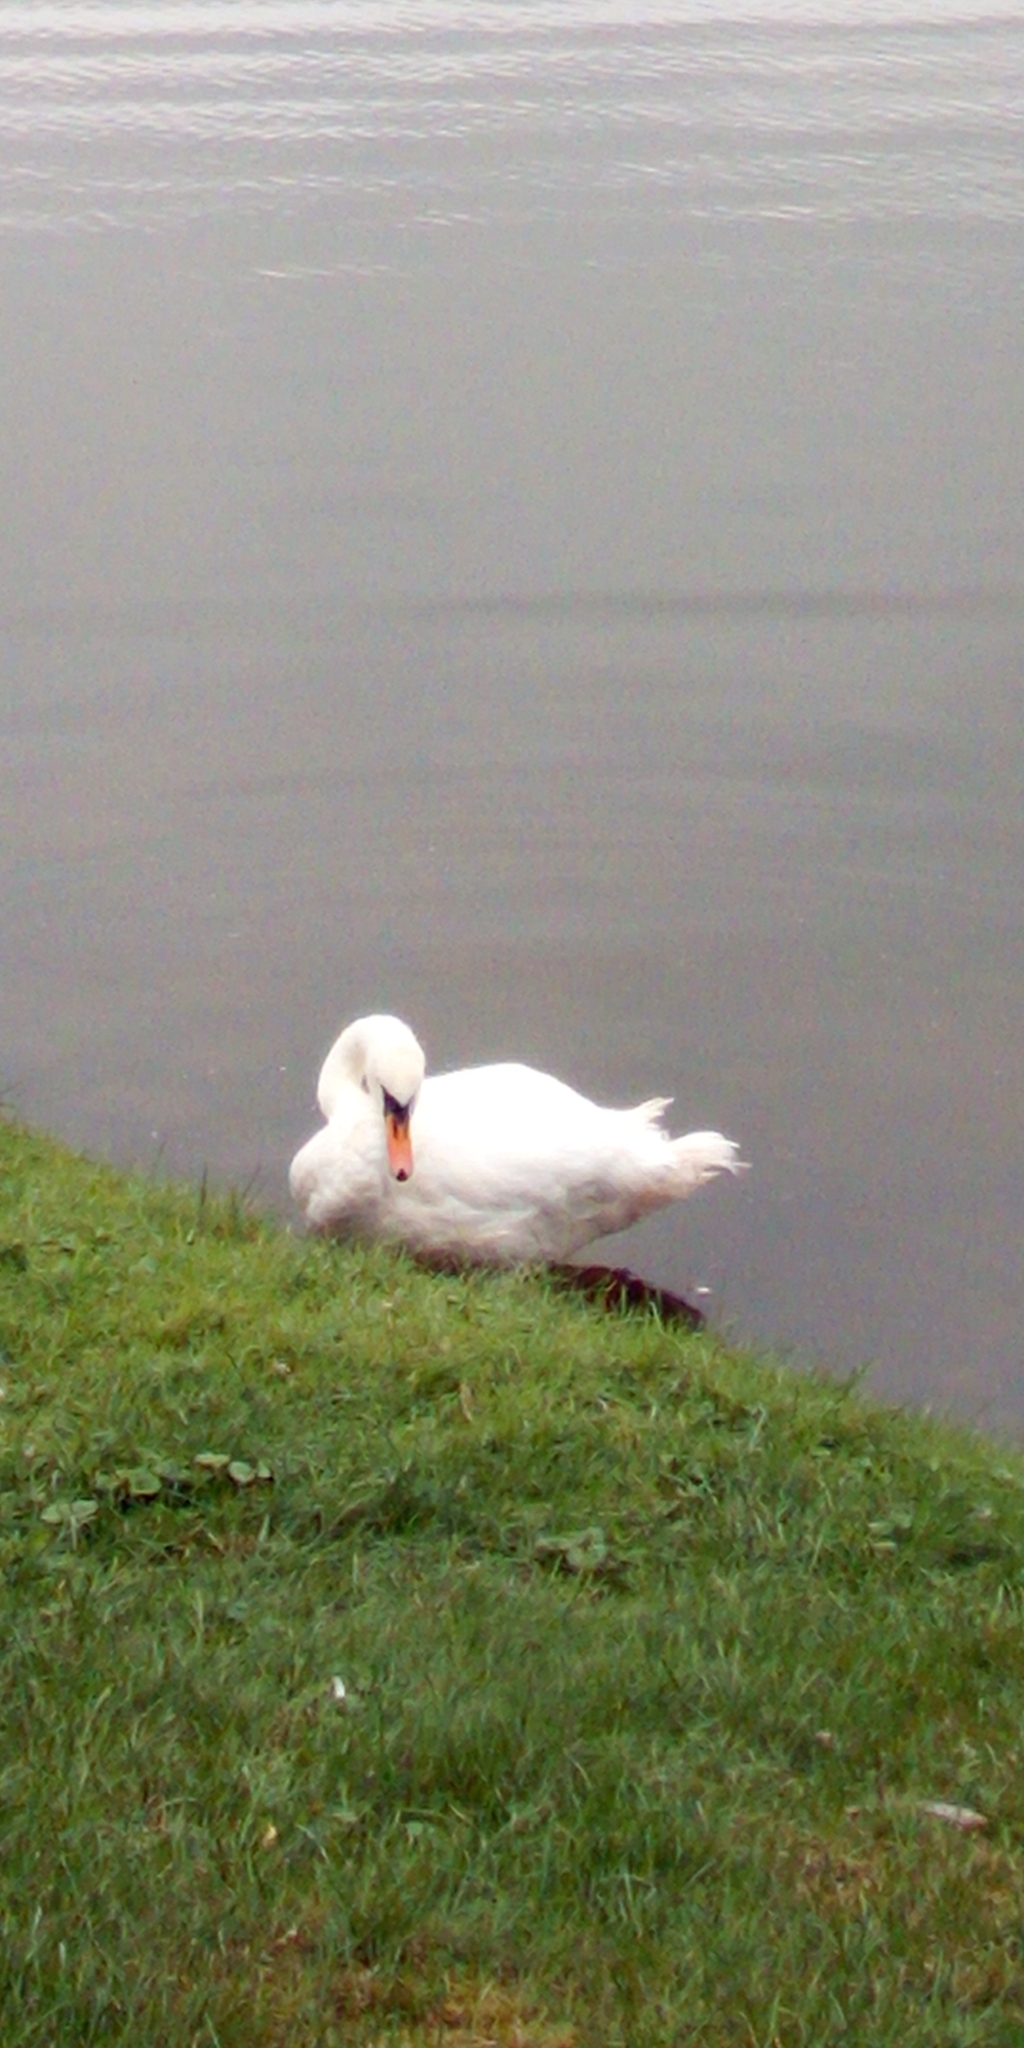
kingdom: Animalia
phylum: Chordata
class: Aves
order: Anseriformes
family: Anatidae
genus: Cygnus
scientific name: Cygnus olor
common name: Mute swan
